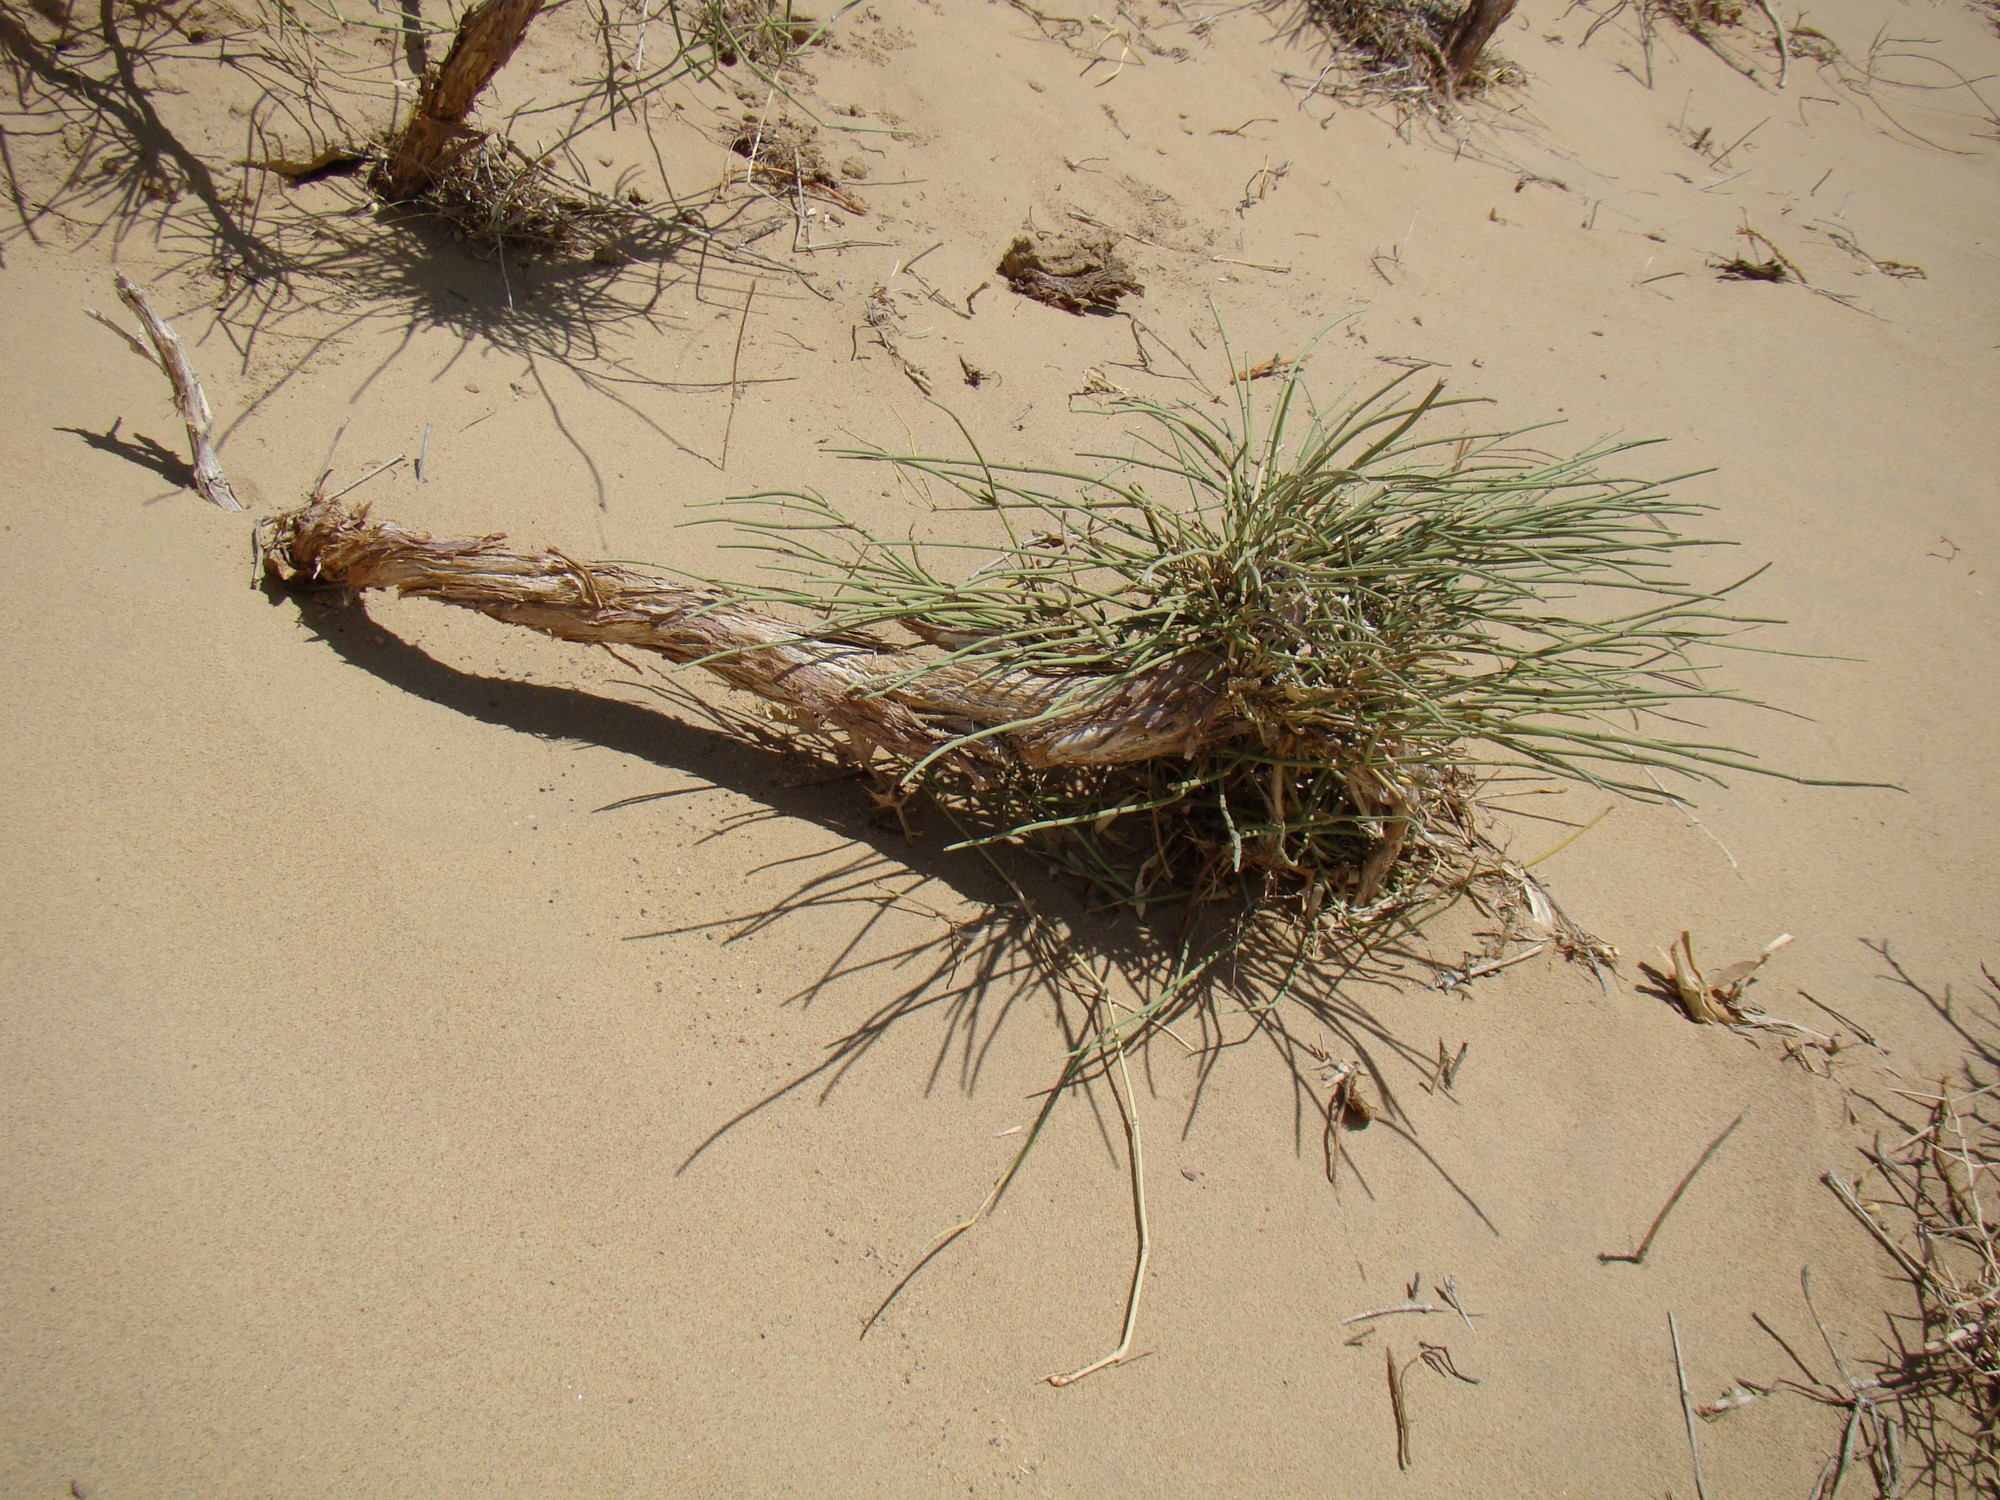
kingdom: Plantae
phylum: Tracheophyta
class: Gnetopsida
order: Ephedrales
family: Ephedraceae
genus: Ephedra
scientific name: Ephedra intermedia
